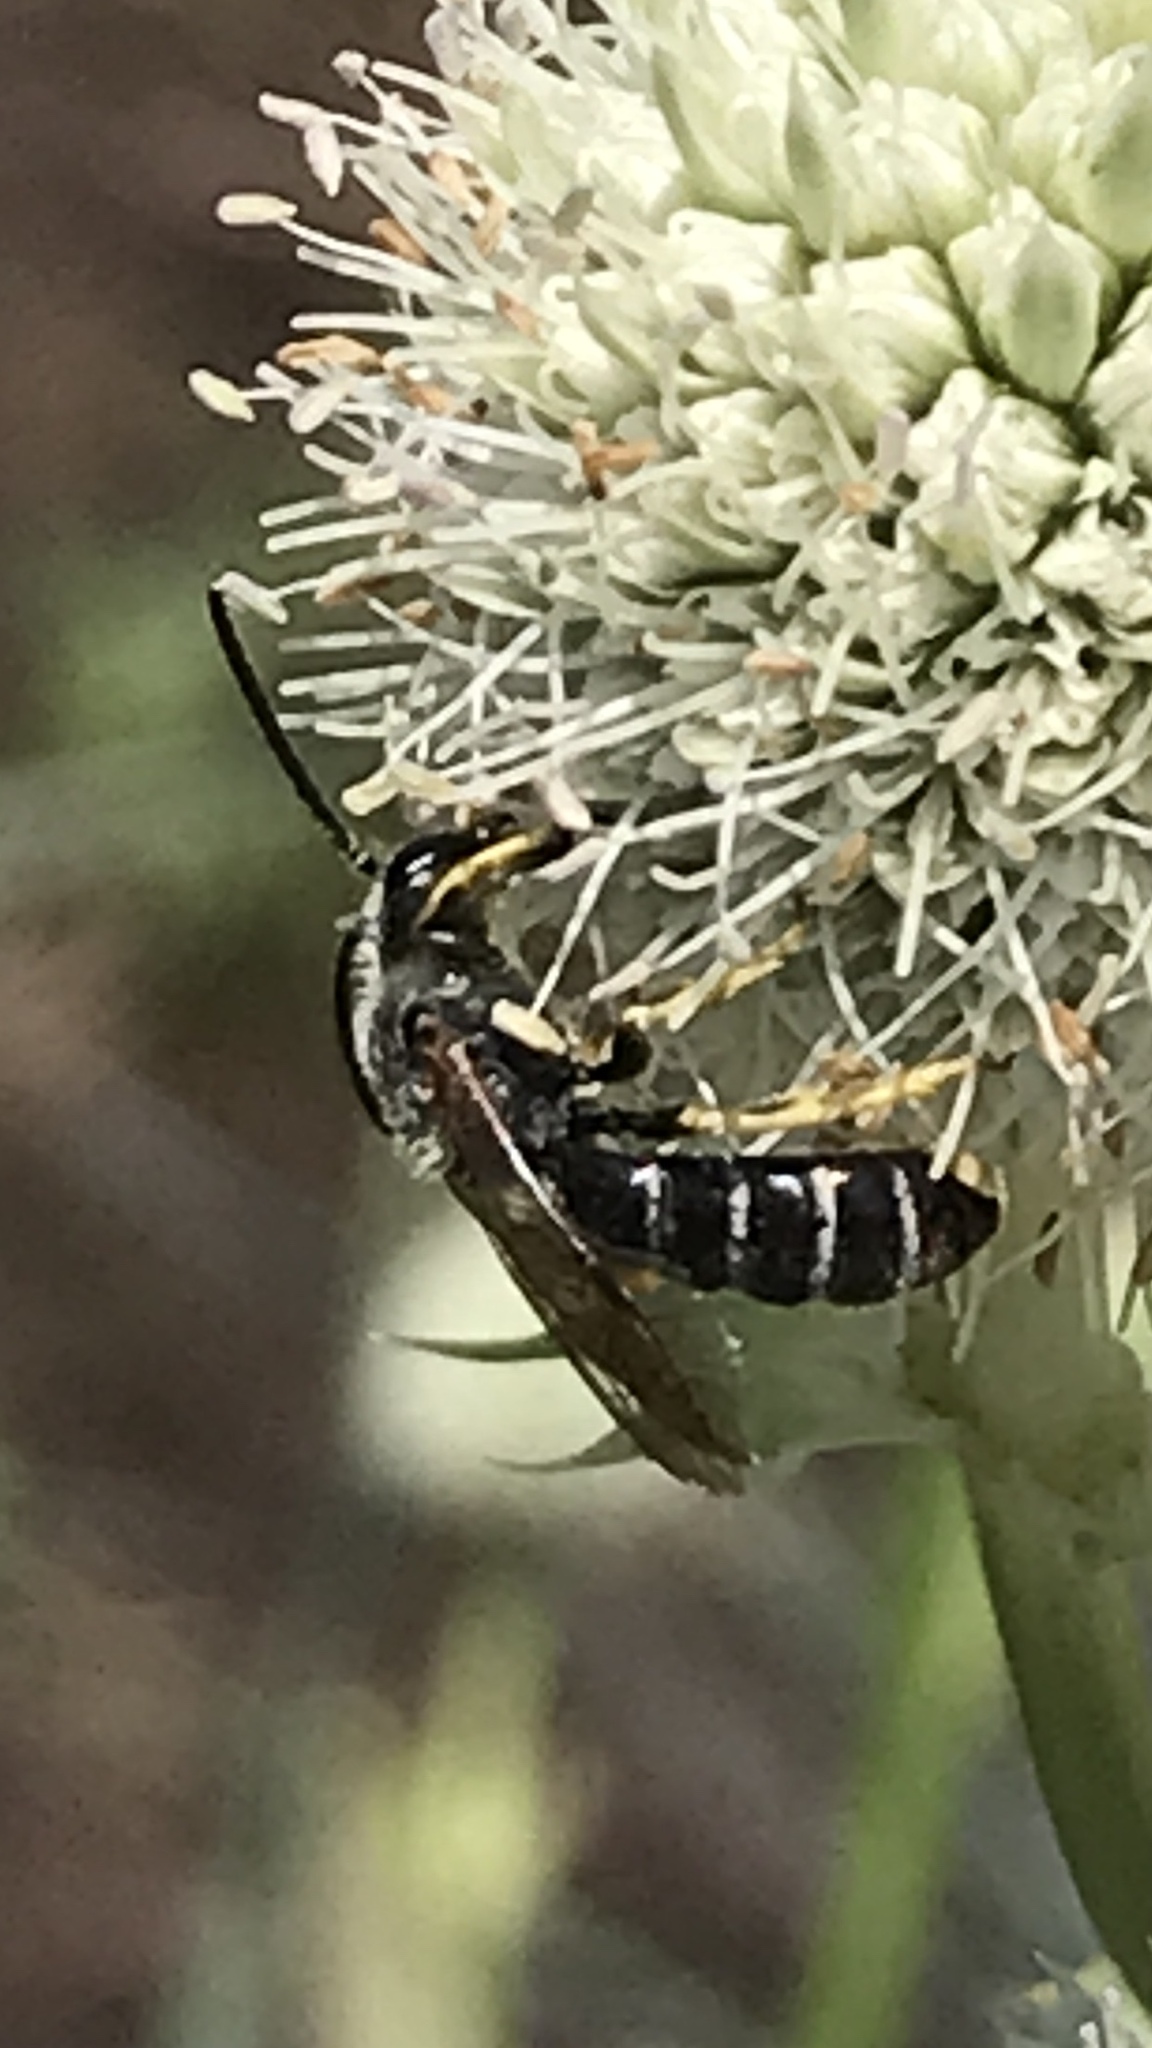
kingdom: Animalia
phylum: Arthropoda
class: Insecta
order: Hymenoptera
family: Halictidae
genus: Halictus
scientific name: Halictus rubicundus
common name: Orange-legged furrow bee
